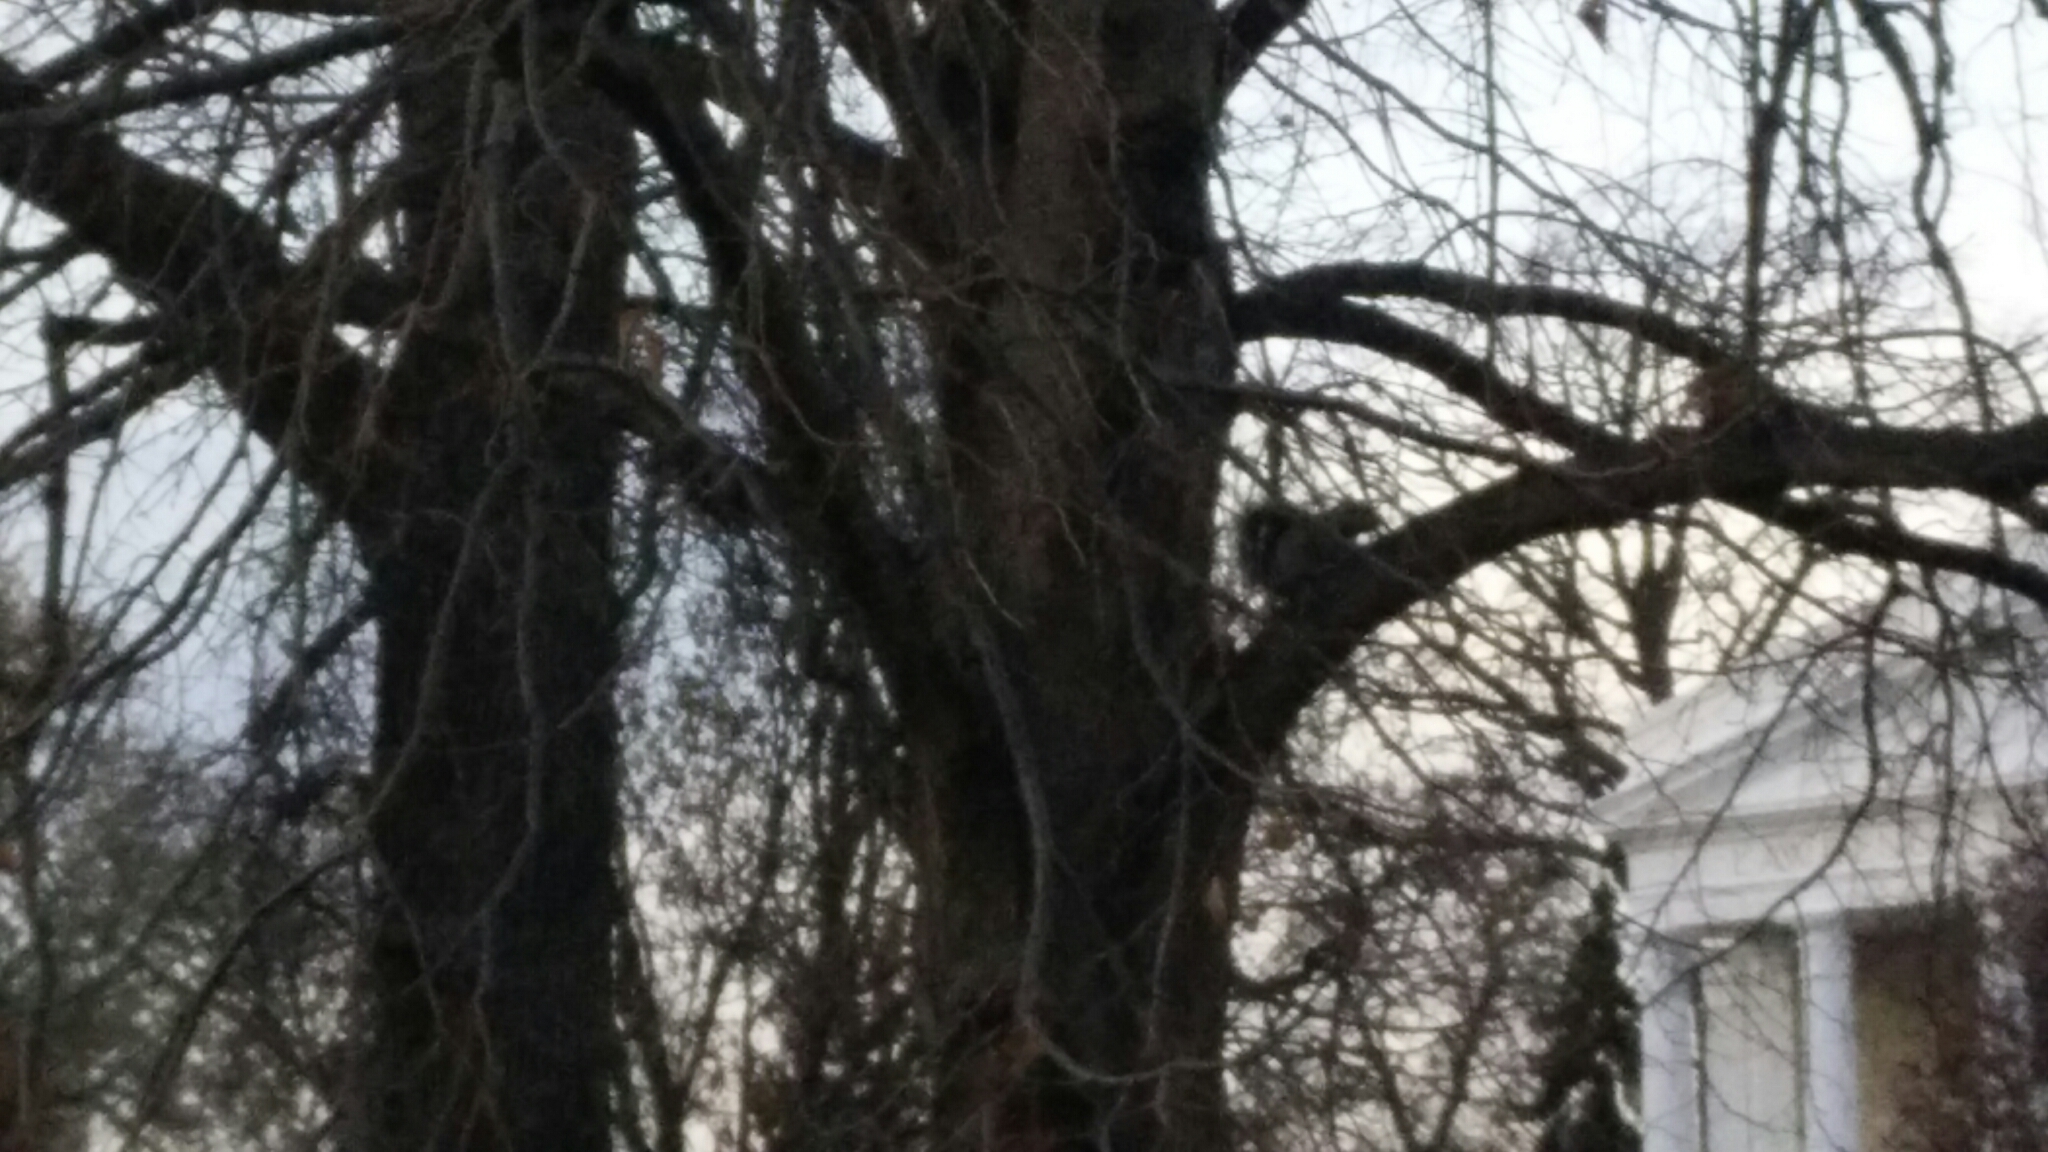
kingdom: Animalia
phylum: Chordata
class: Mammalia
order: Rodentia
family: Sciuridae
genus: Sciurus
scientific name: Sciurus carolinensis
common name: Eastern gray squirrel
